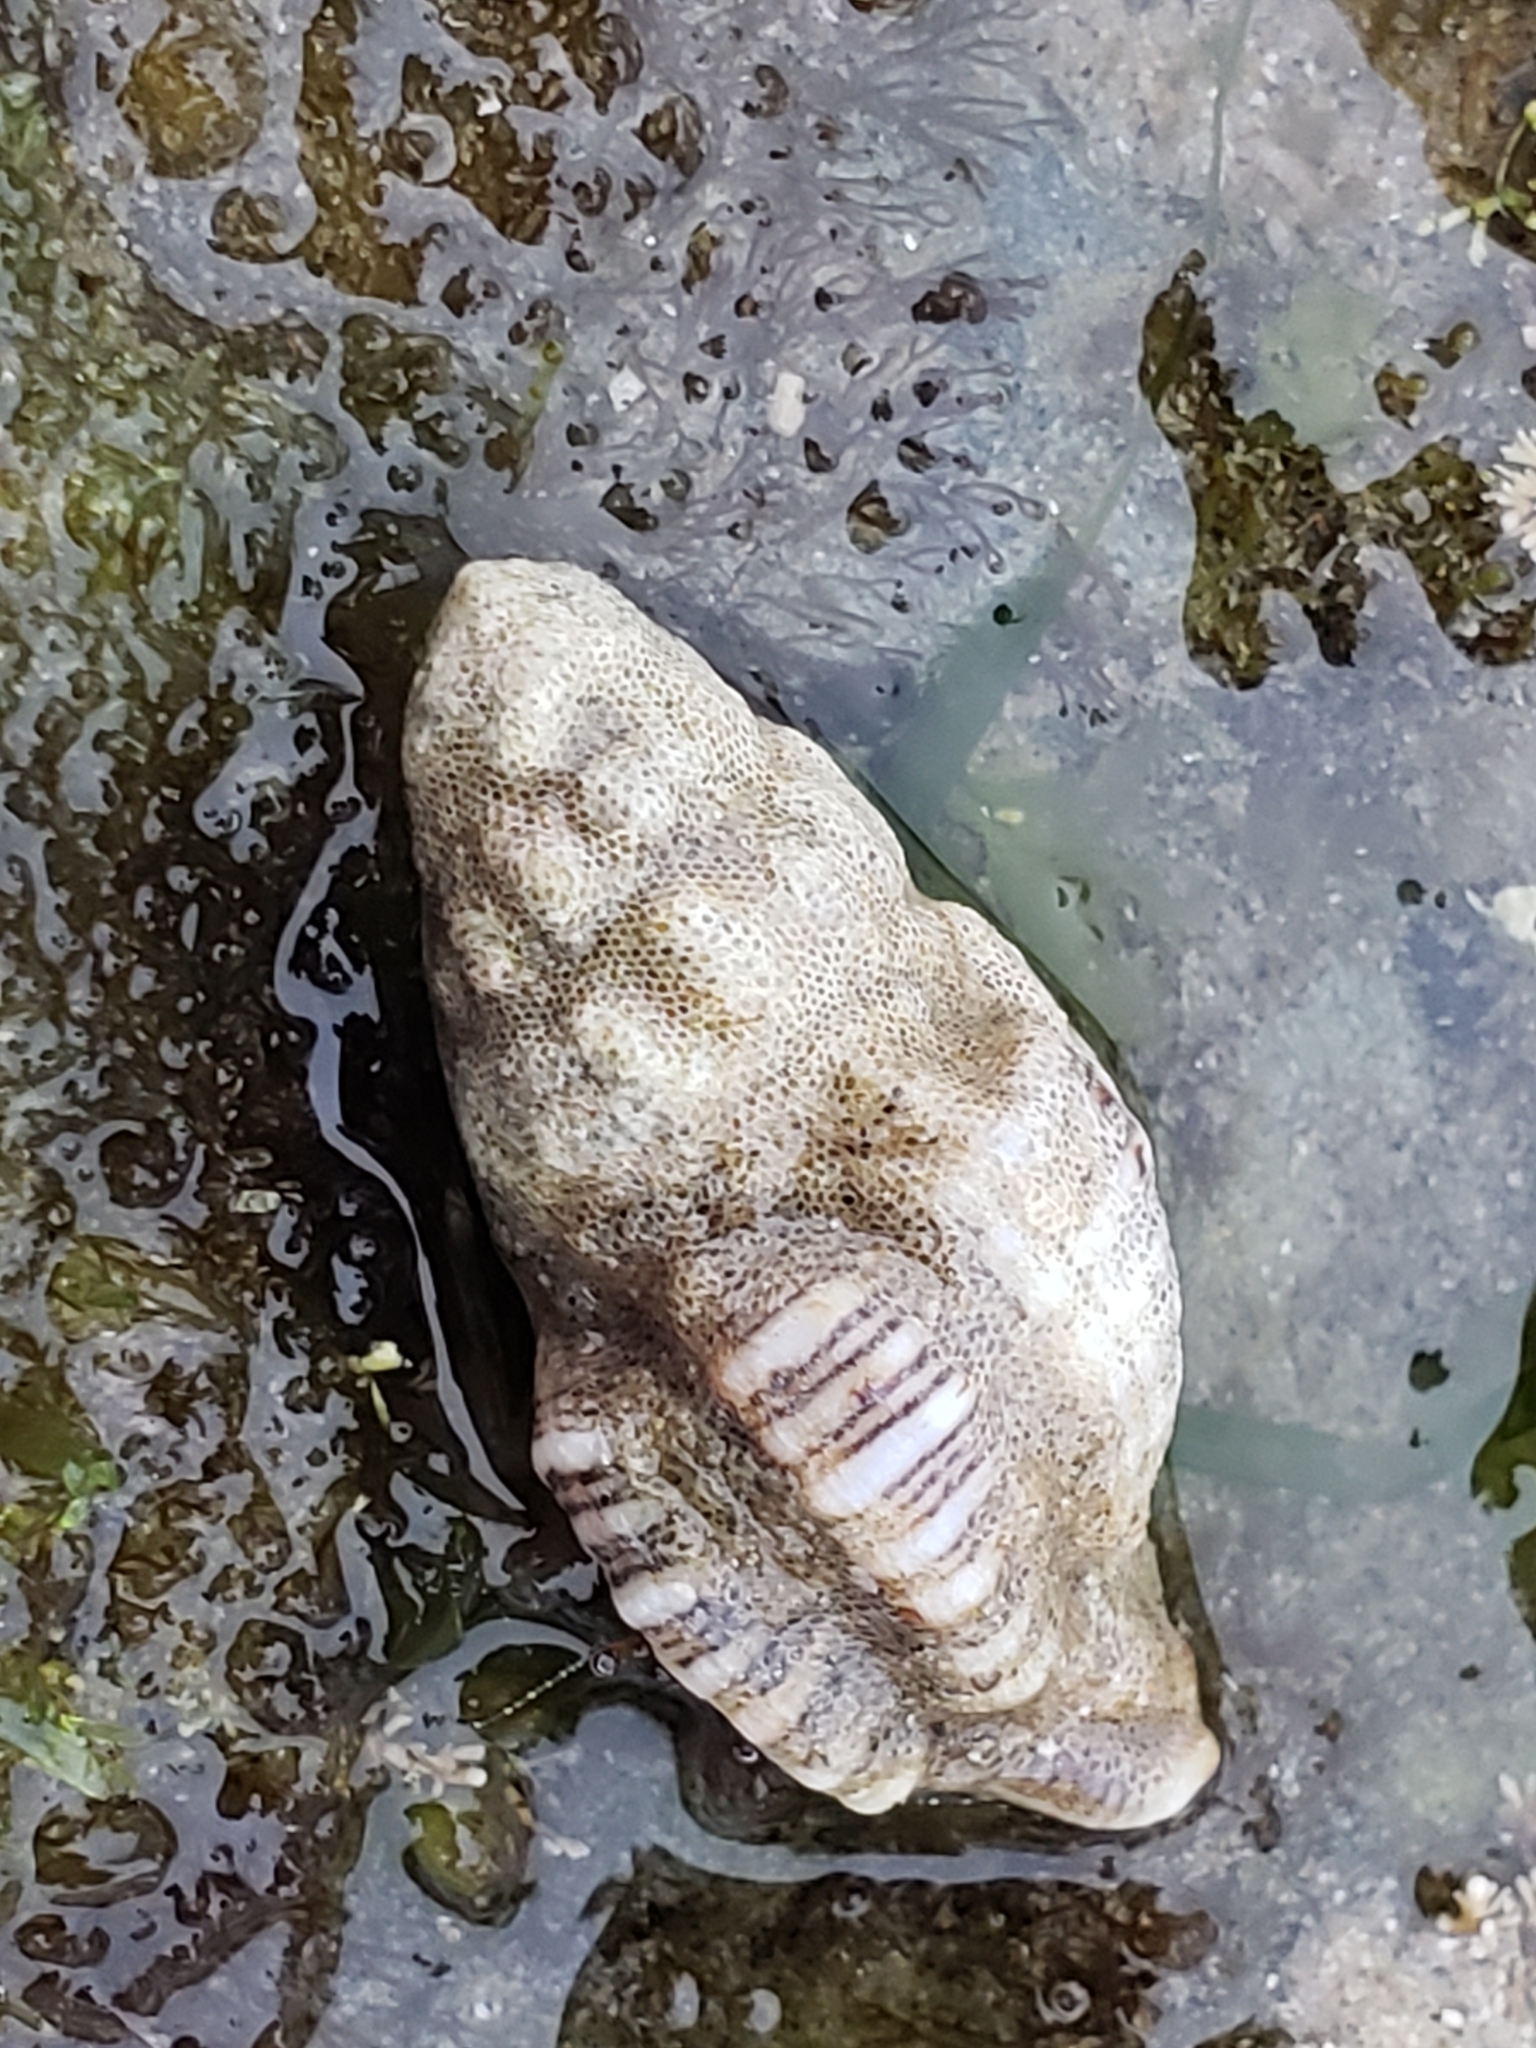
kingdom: Animalia
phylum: Mollusca
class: Gastropoda
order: Neogastropoda
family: Muricidae
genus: Roperia
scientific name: Roperia poulsoni
